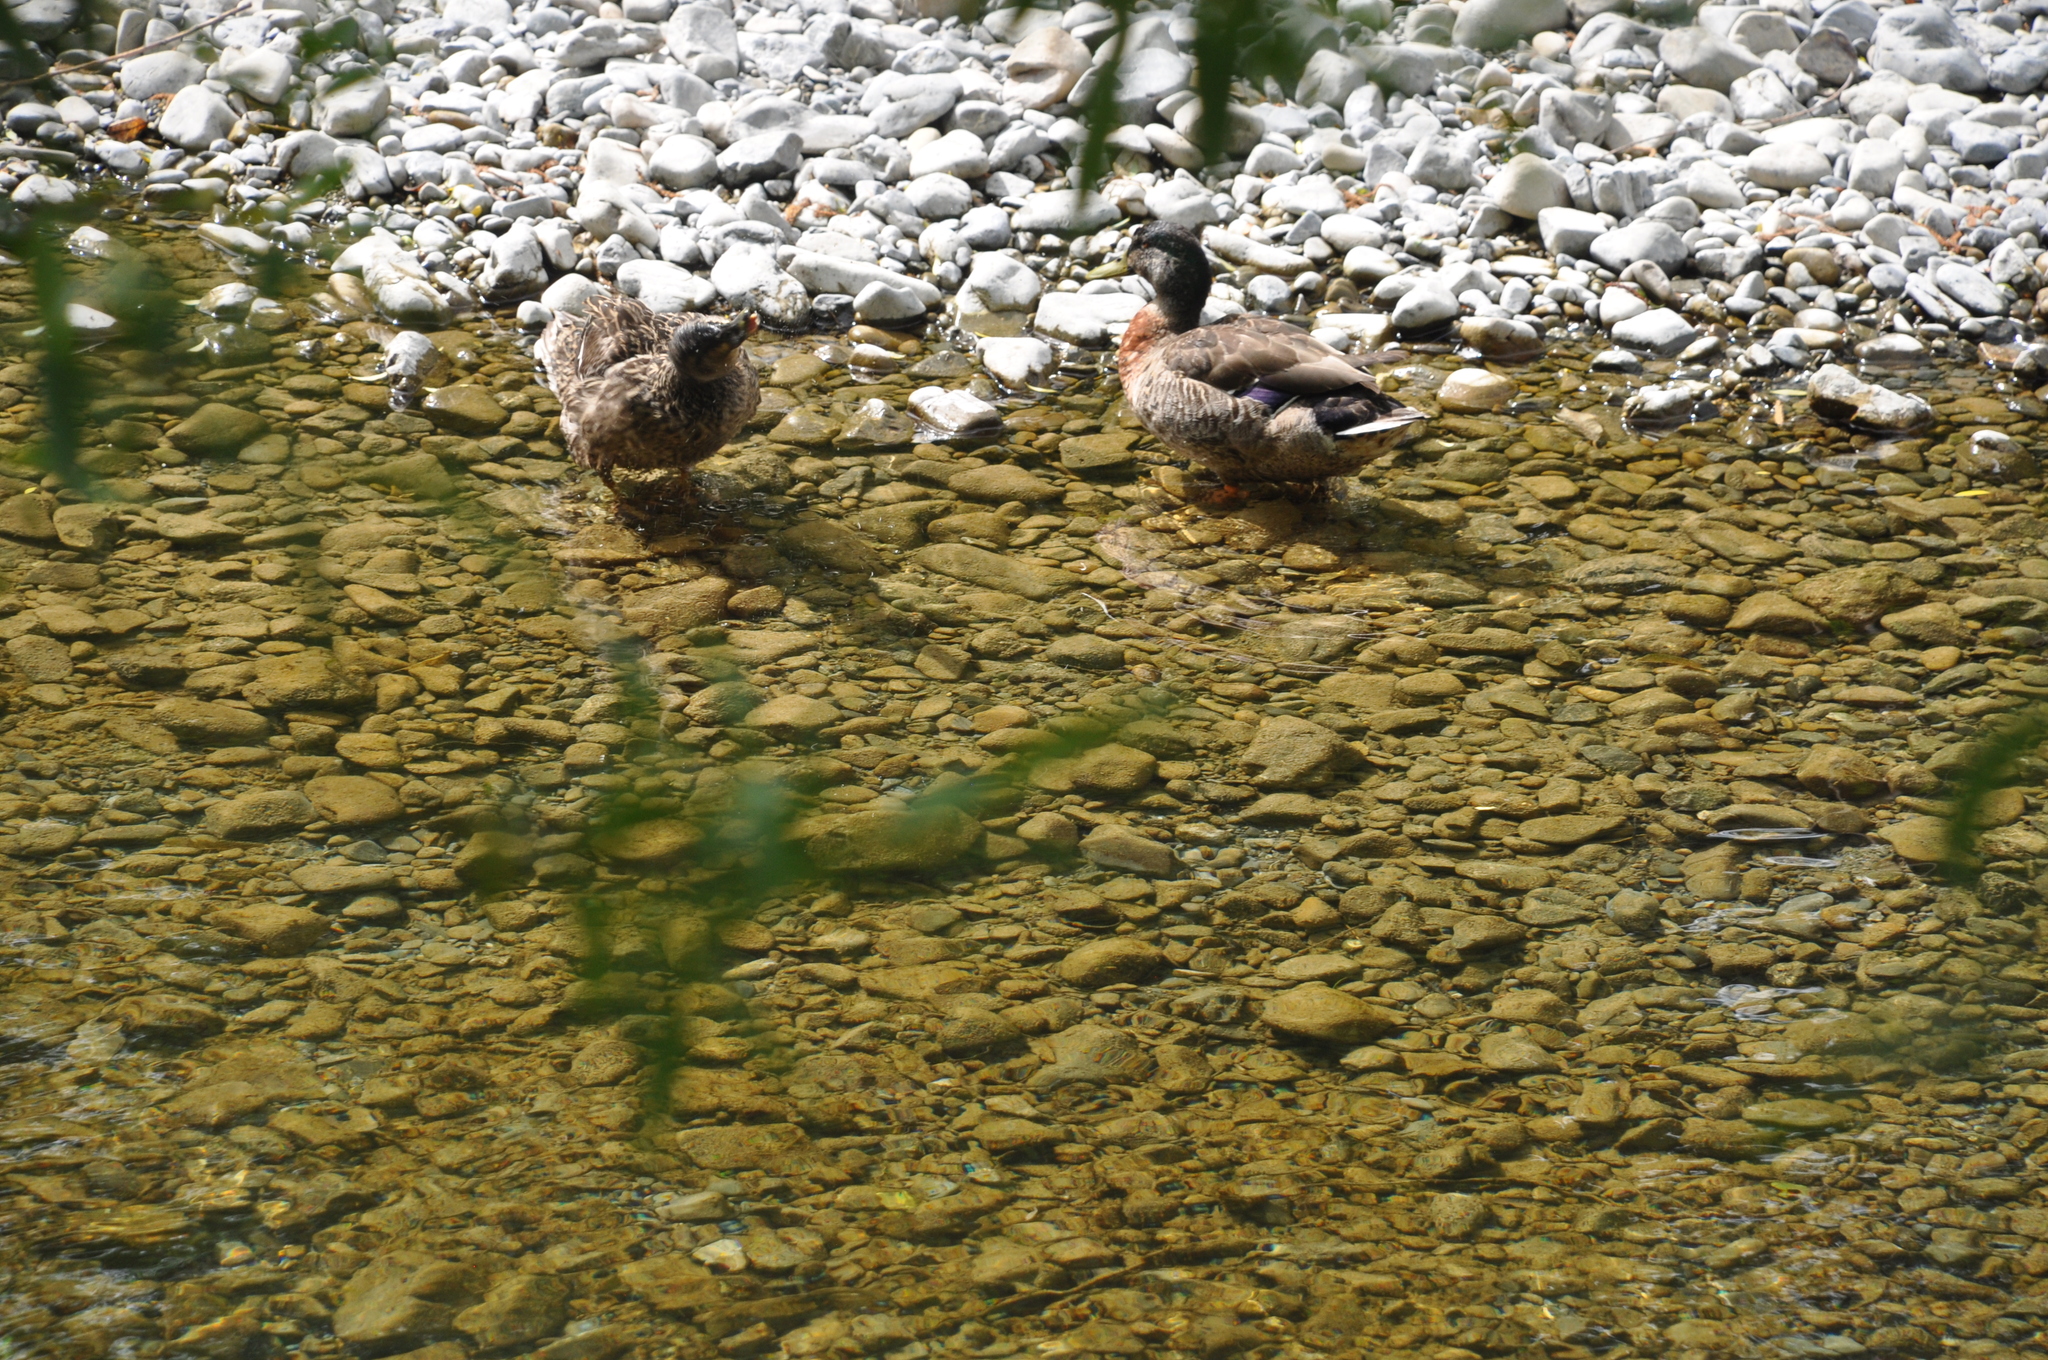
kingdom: Animalia
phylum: Chordata
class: Aves
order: Anseriformes
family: Anatidae
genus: Anas
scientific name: Anas platyrhynchos
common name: Mallard
